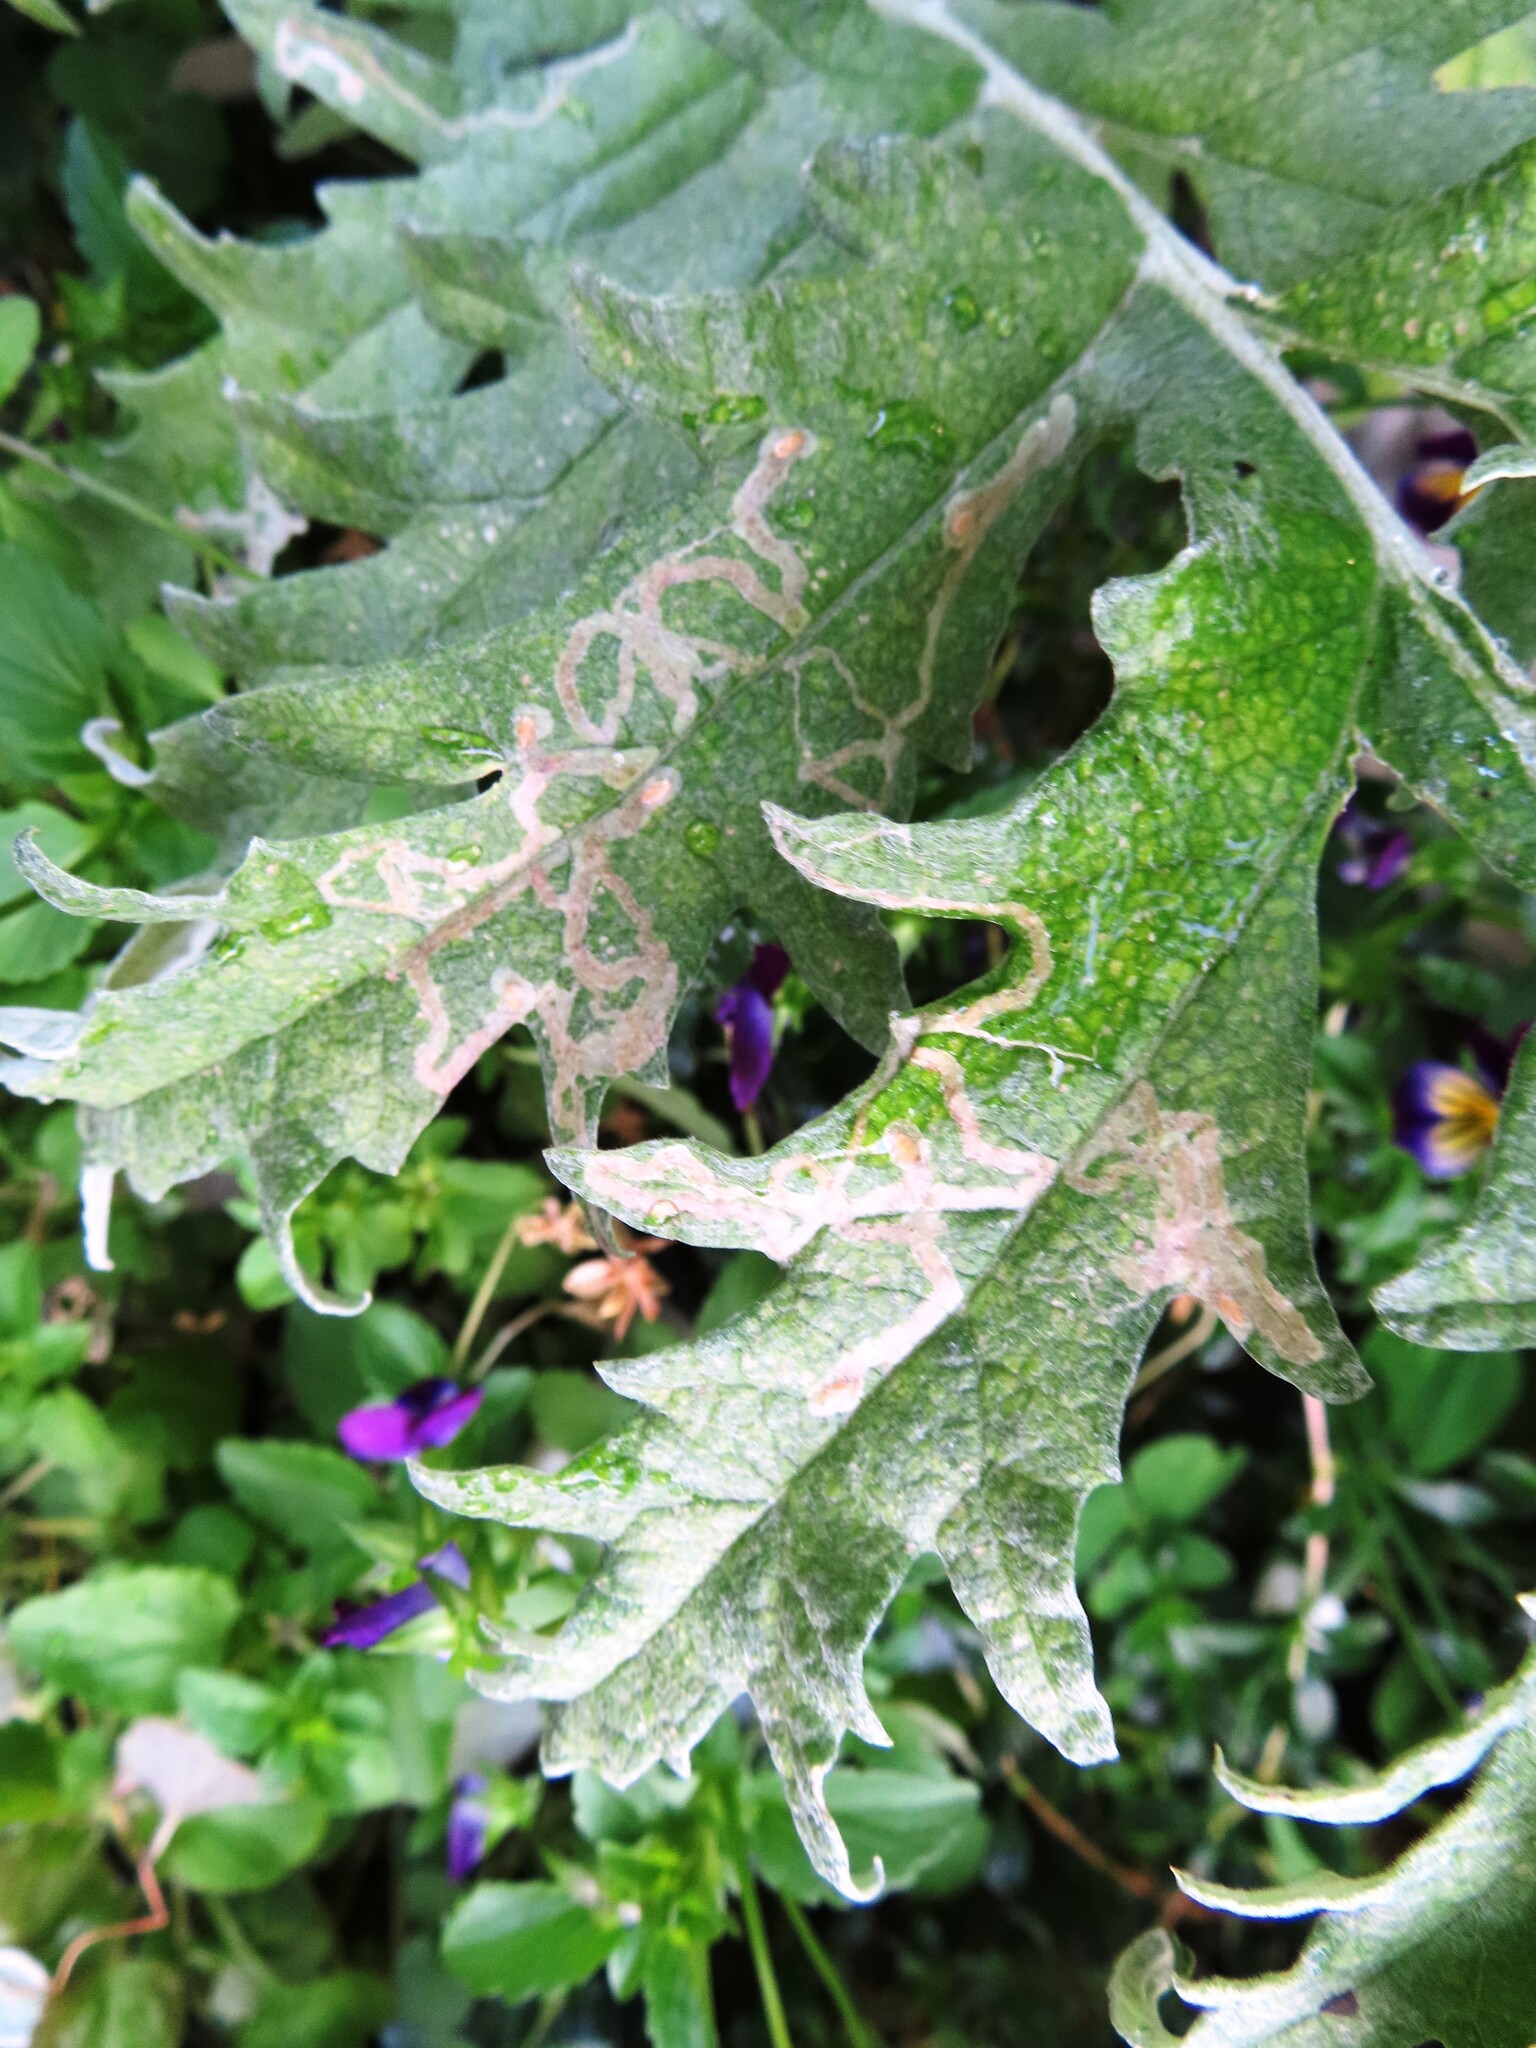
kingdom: Animalia
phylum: Arthropoda
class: Insecta
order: Diptera
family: Agromyzidae
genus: Phytomyza
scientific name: Phytomyza syngenesiae
